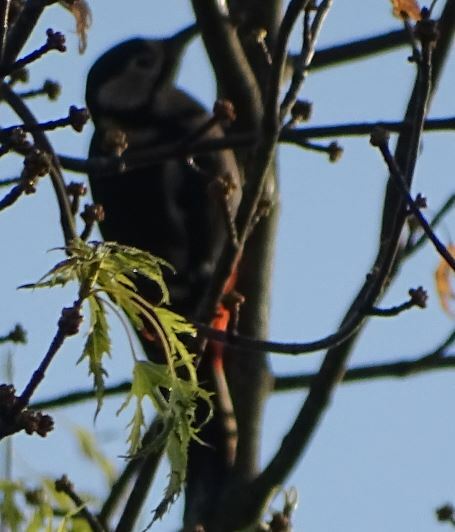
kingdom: Animalia
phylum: Chordata
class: Aves
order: Piciformes
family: Picidae
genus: Dendrocopos
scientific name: Dendrocopos major
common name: Great spotted woodpecker
